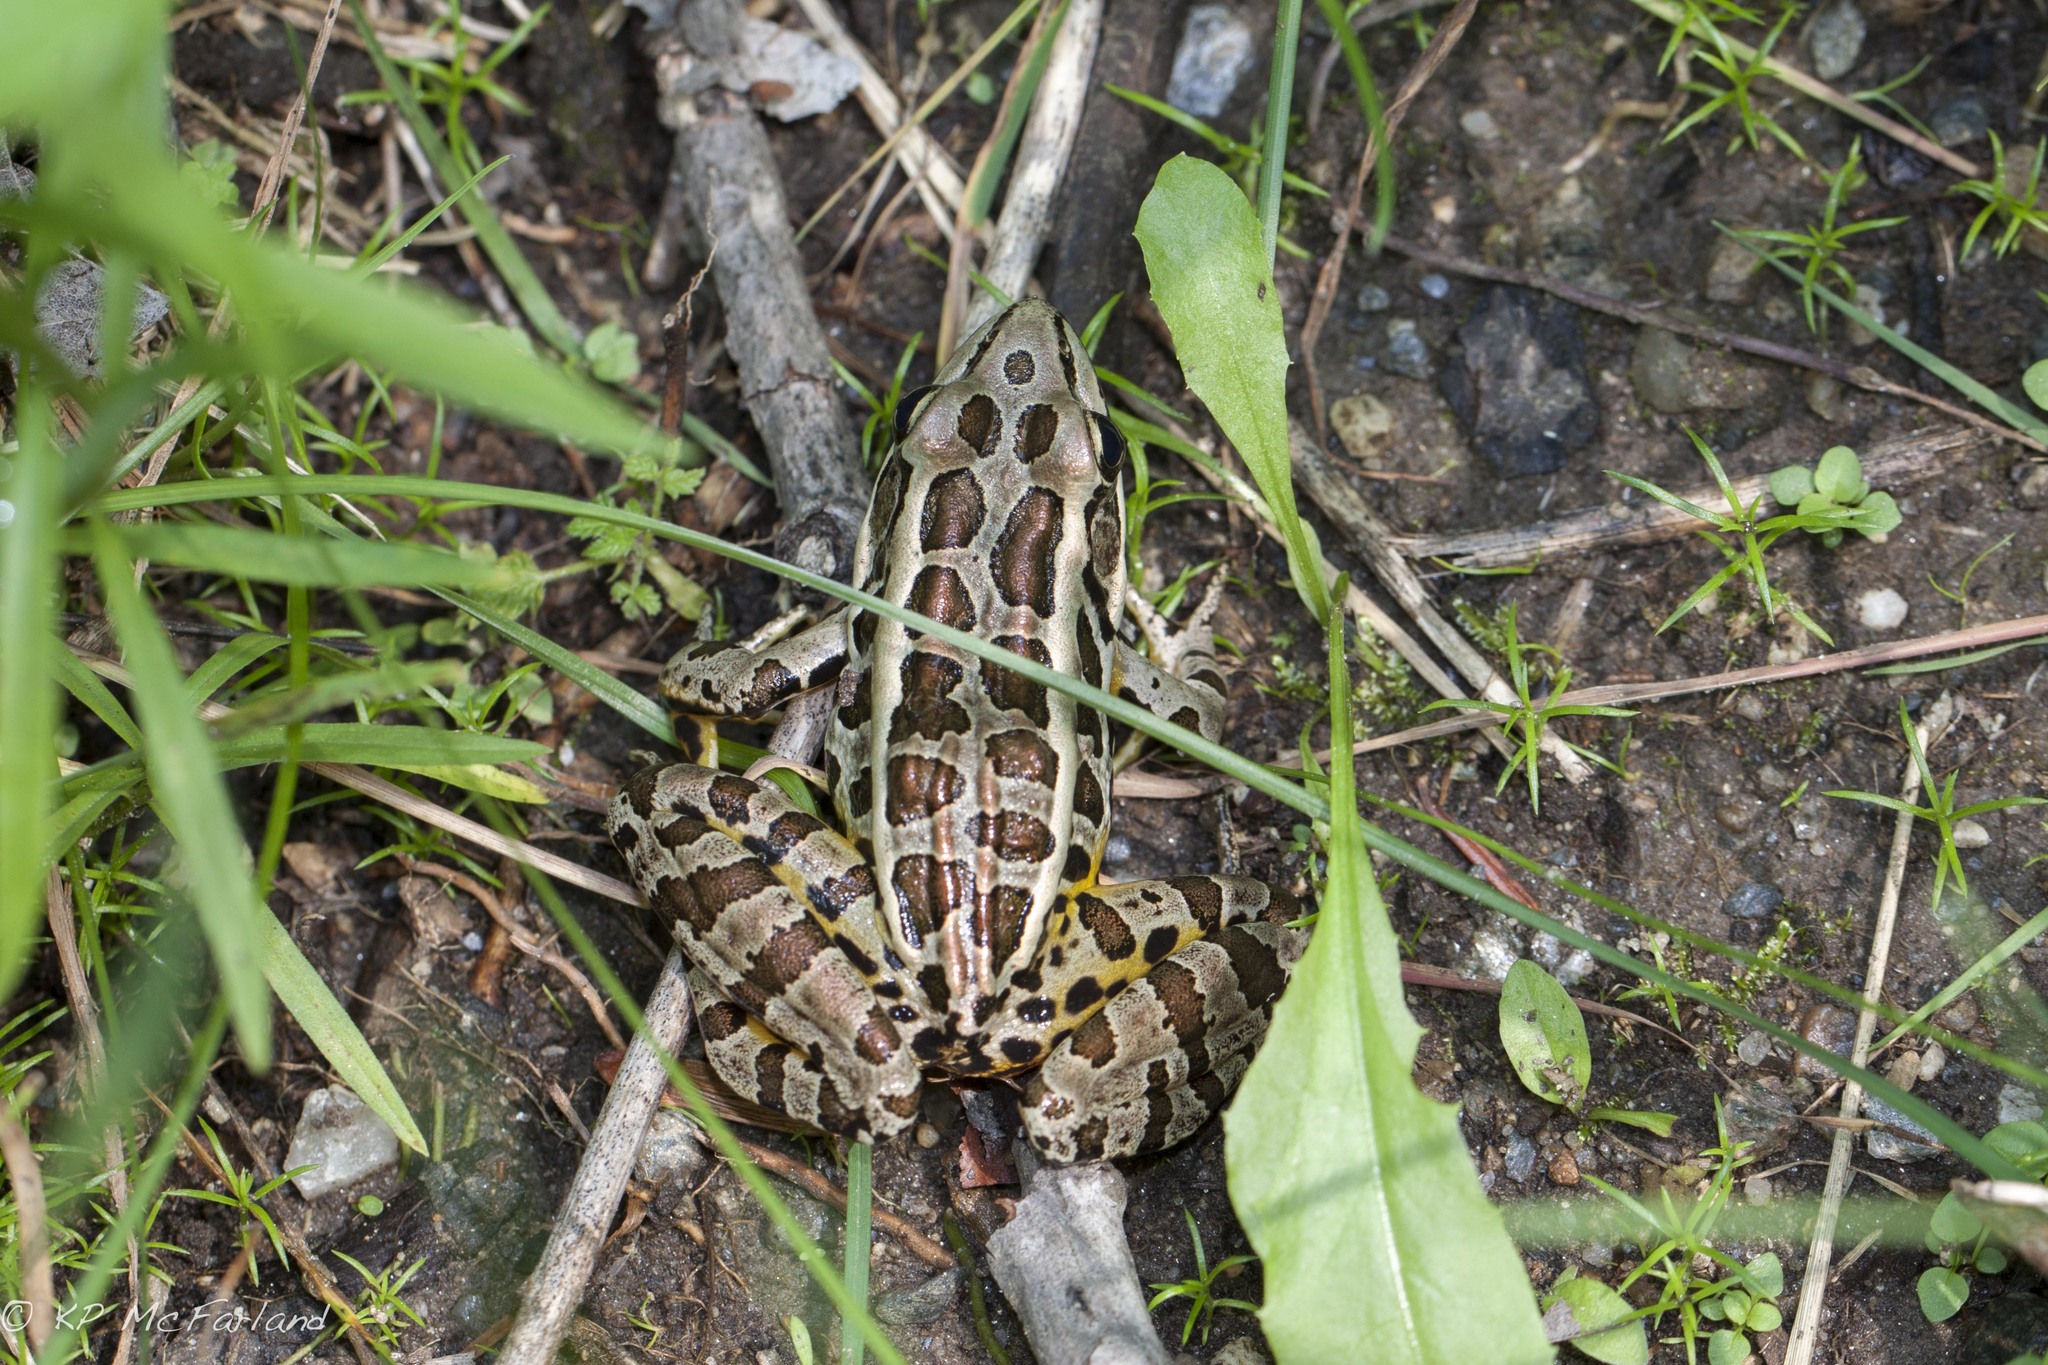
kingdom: Animalia
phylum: Chordata
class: Amphibia
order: Anura
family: Ranidae
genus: Lithobates
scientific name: Lithobates palustris
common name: Pickerel frog
